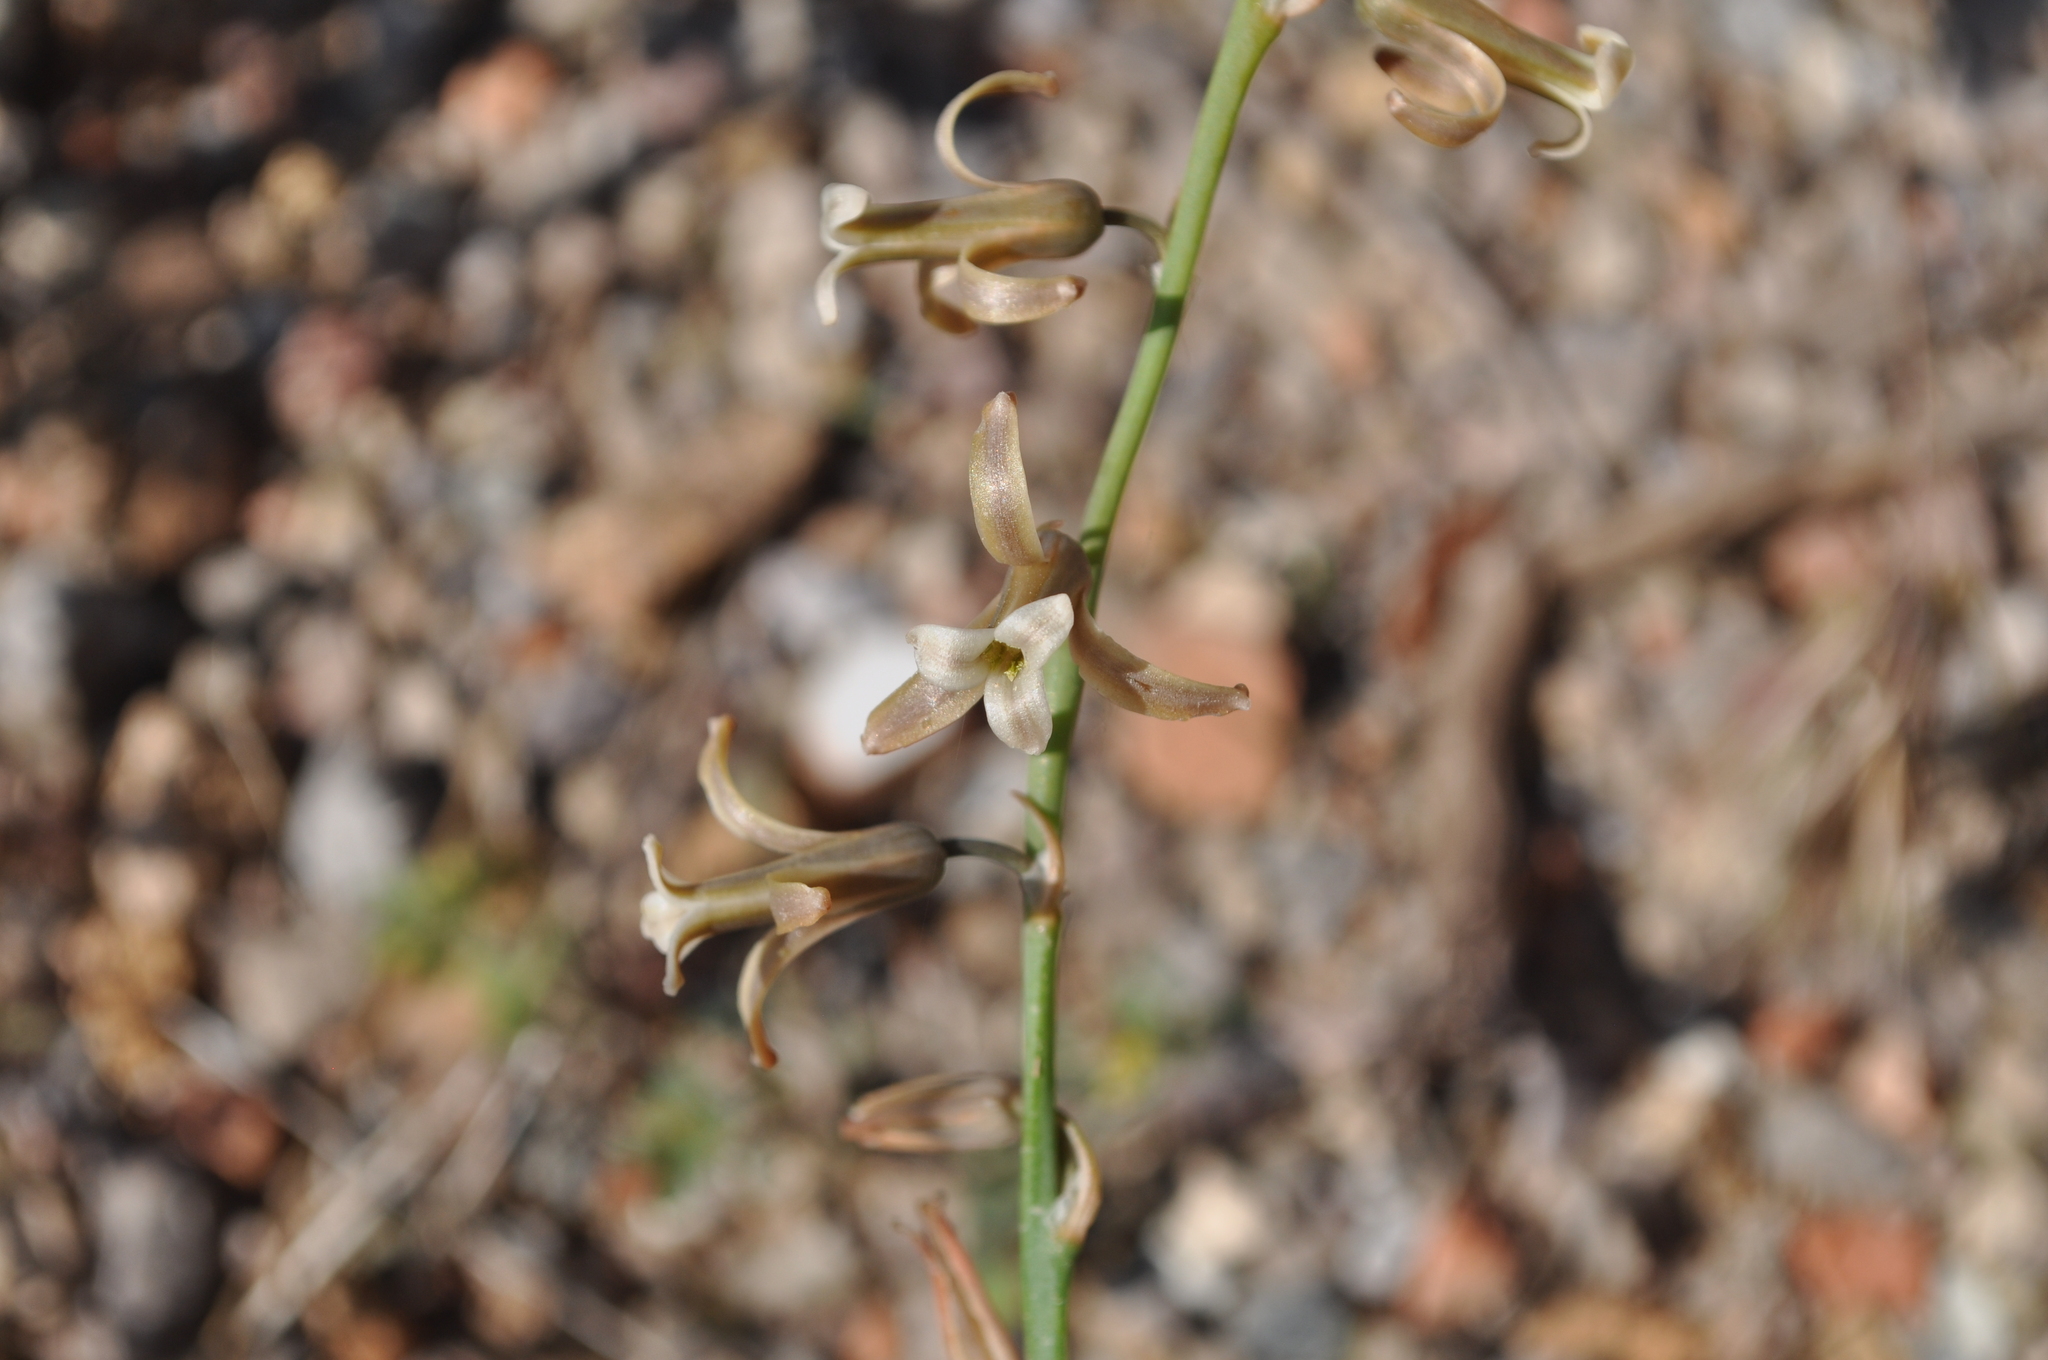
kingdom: Plantae
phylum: Tracheophyta
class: Liliopsida
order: Asparagales
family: Asparagaceae
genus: Dipcadi
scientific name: Dipcadi serotinum
